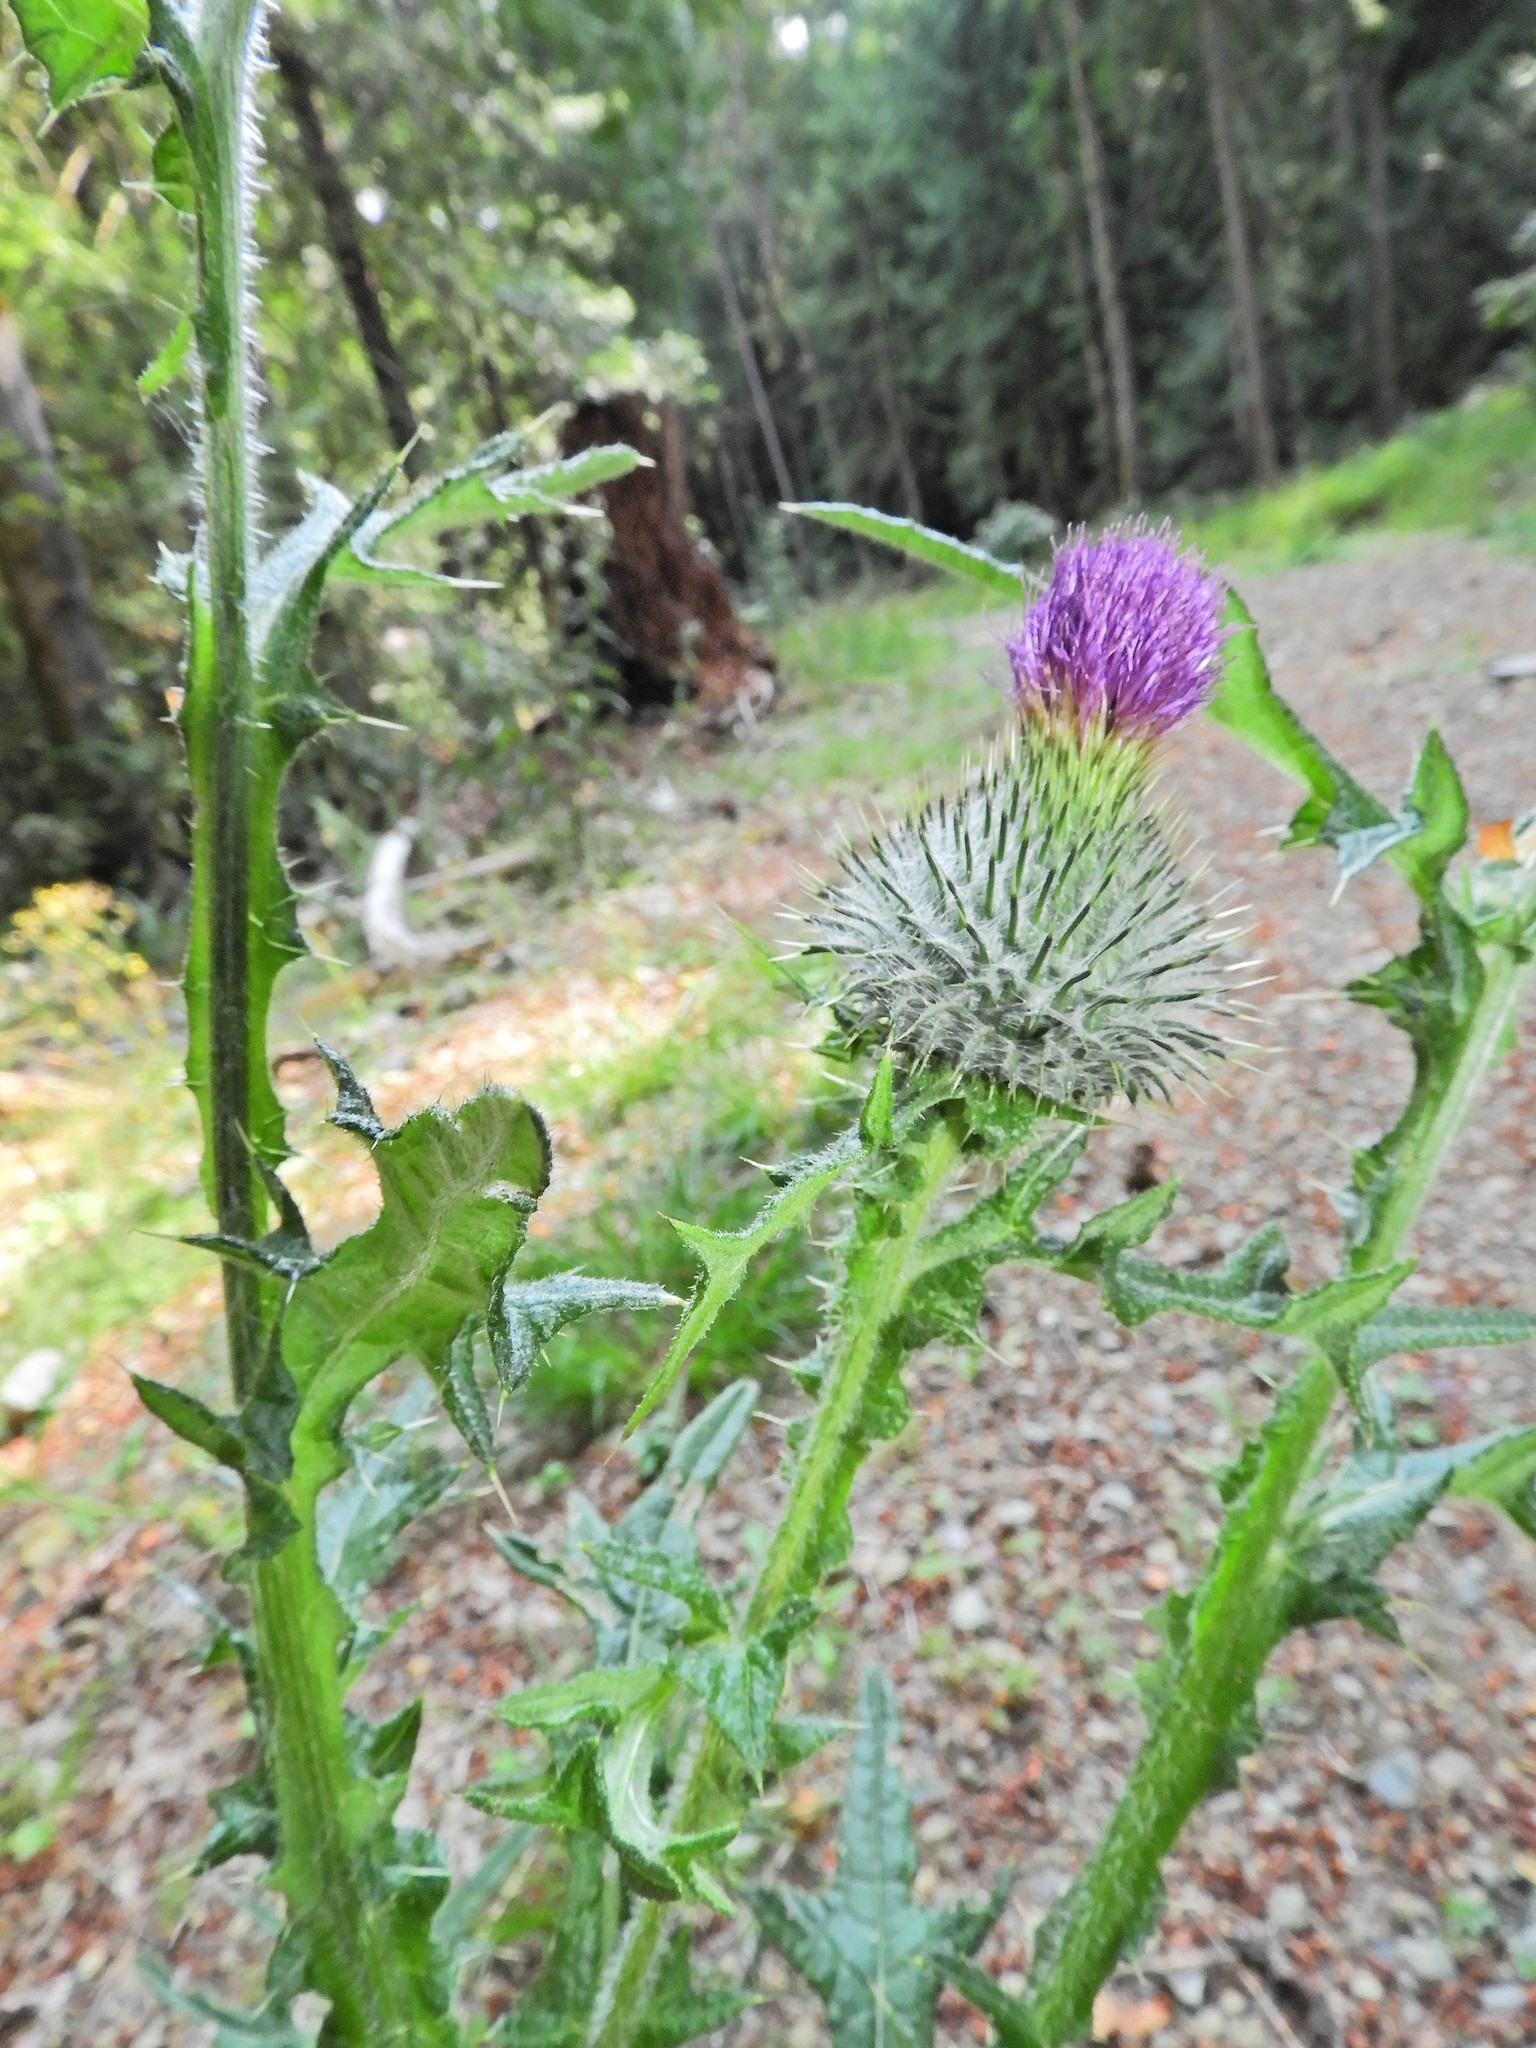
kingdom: Plantae
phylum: Tracheophyta
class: Magnoliopsida
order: Asterales
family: Asteraceae
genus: Cirsium
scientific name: Cirsium vulgare
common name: Bull thistle
